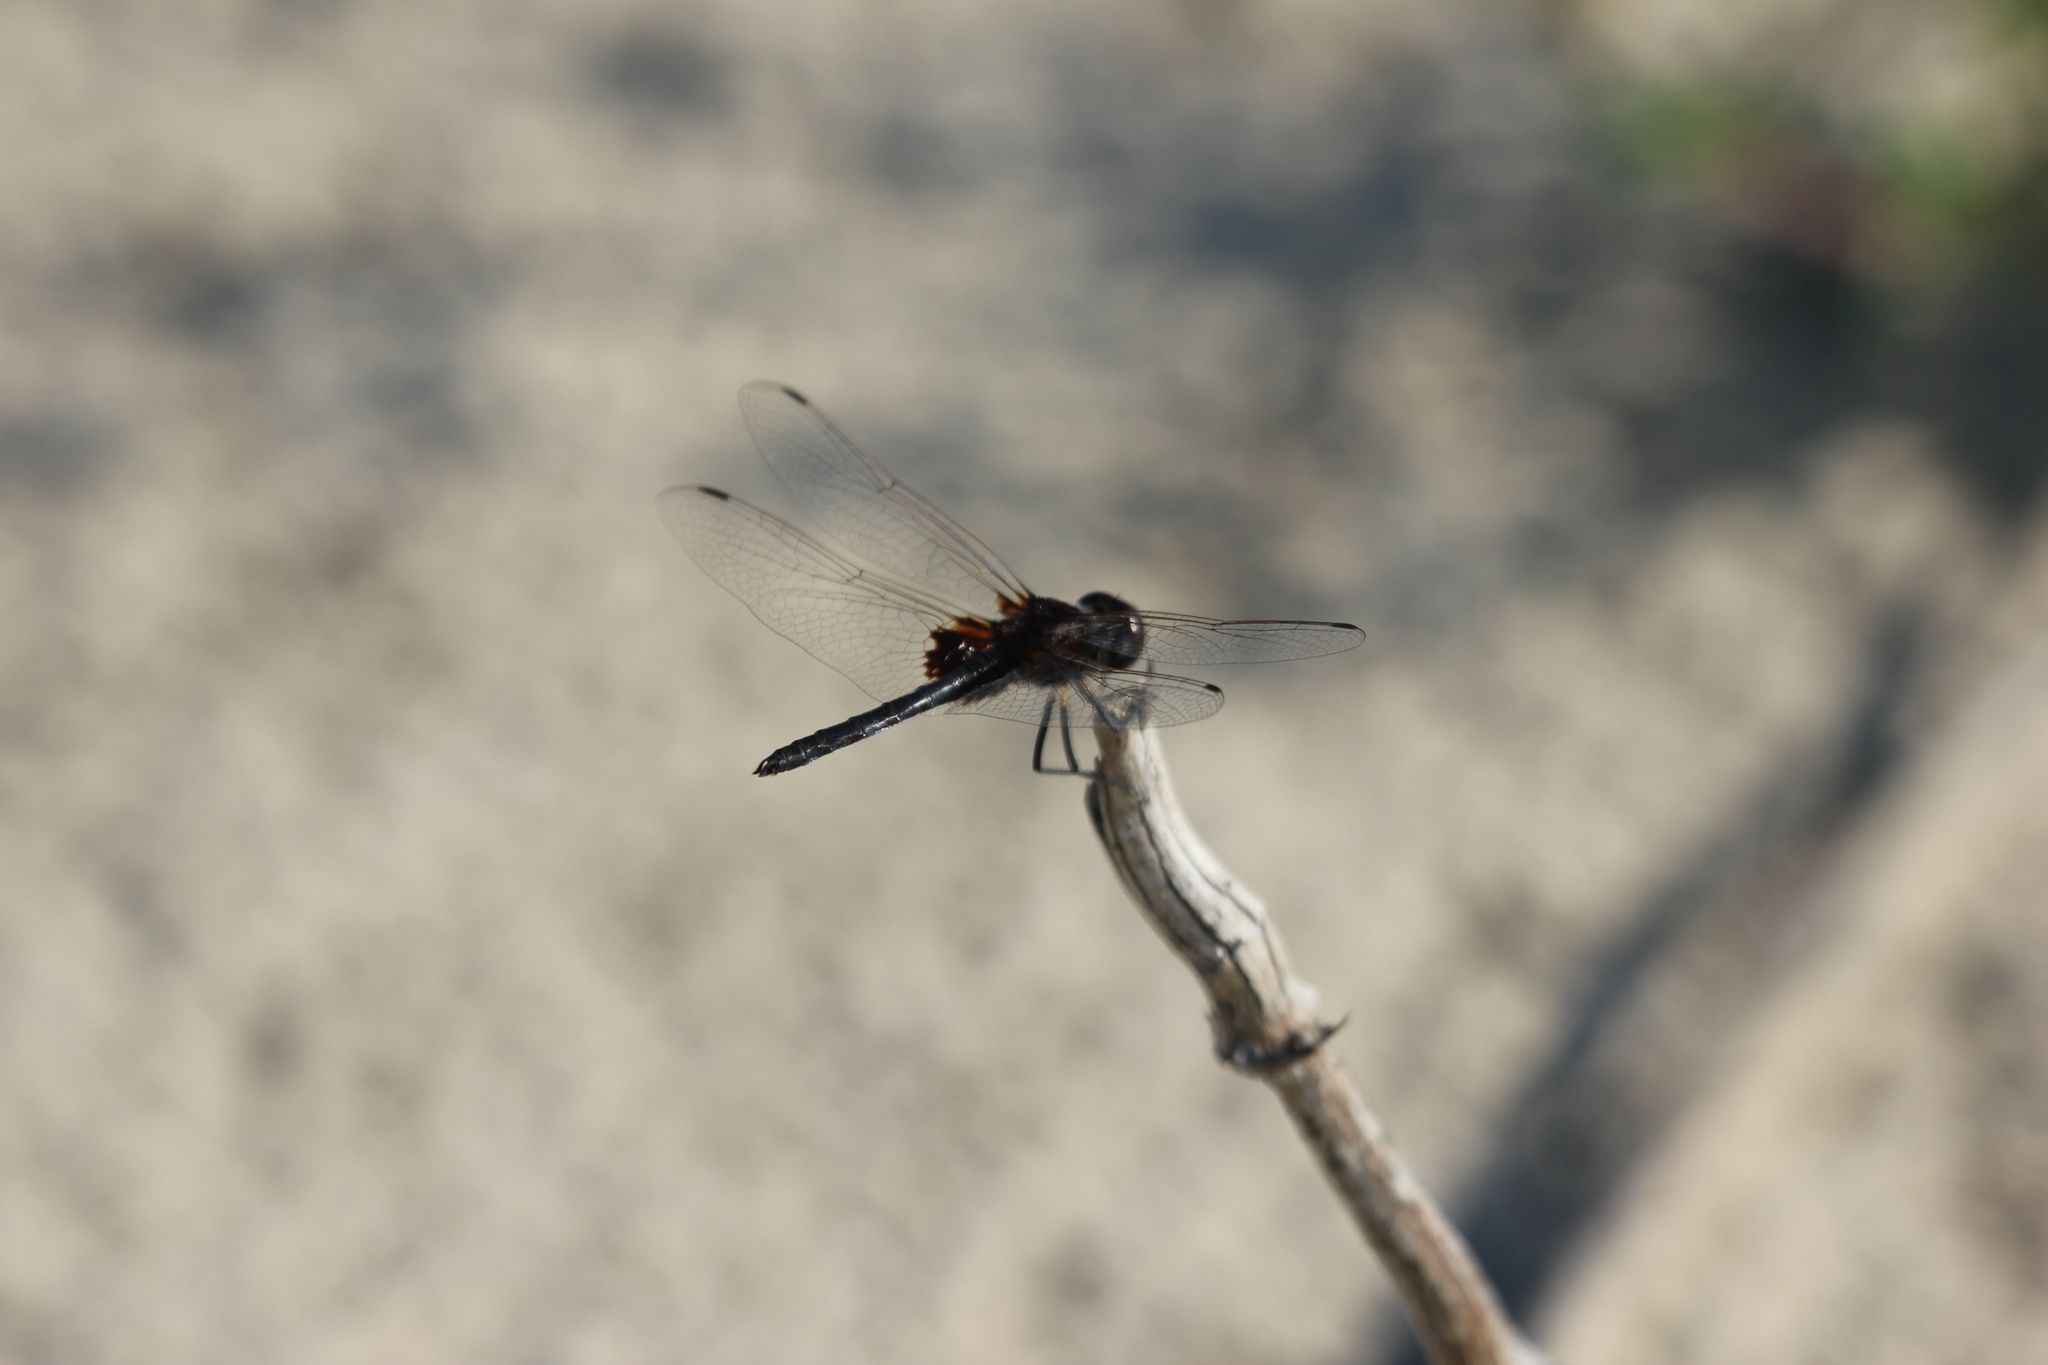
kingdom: Animalia
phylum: Arthropoda
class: Insecta
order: Odonata
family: Libellulidae
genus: Macrodiplax
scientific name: Macrodiplax balteata
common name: Marl pennant
